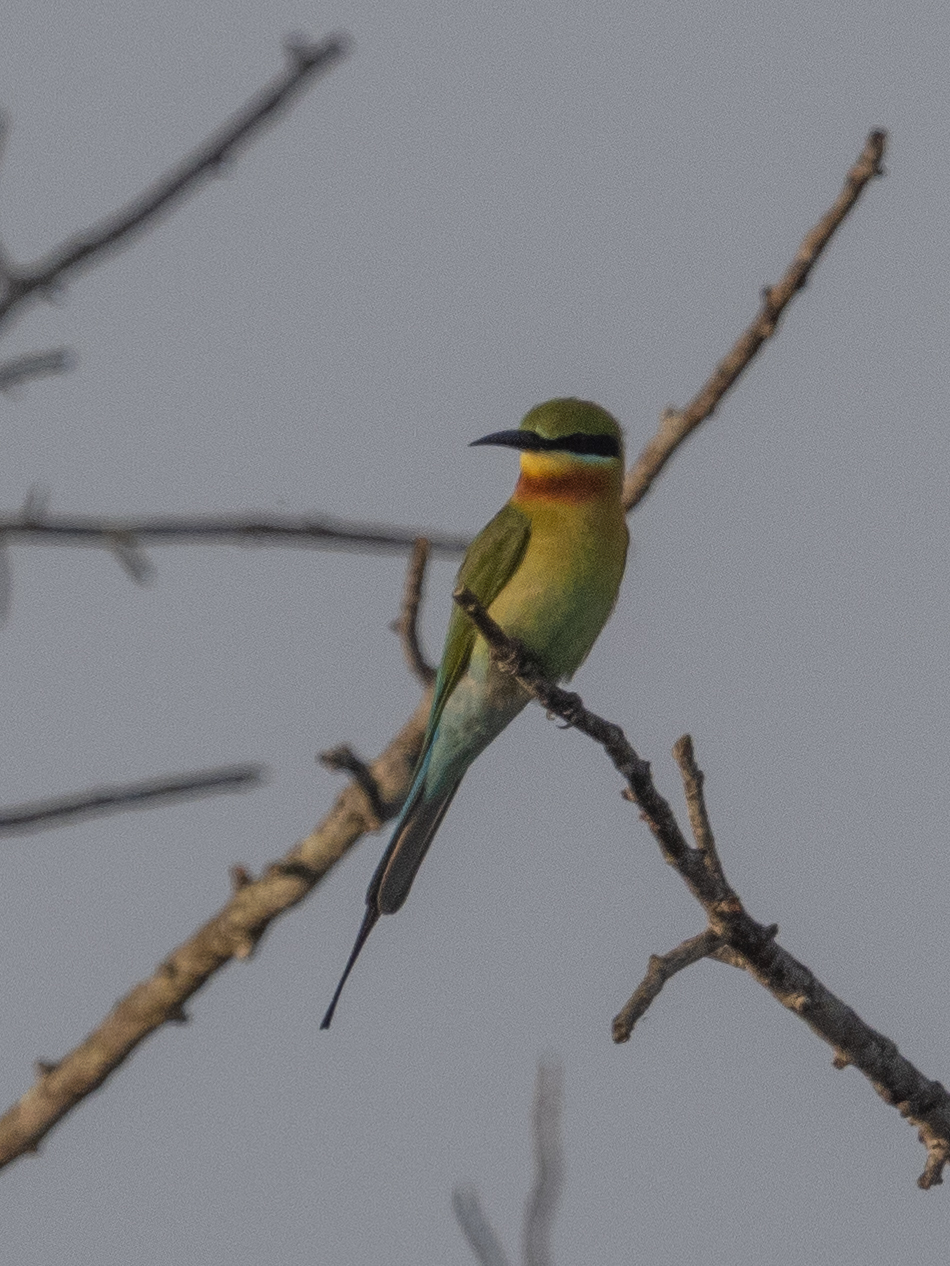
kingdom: Animalia
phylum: Chordata
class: Aves
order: Coraciiformes
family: Meropidae
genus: Merops
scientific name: Merops philippinus
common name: Blue-tailed bee-eater
